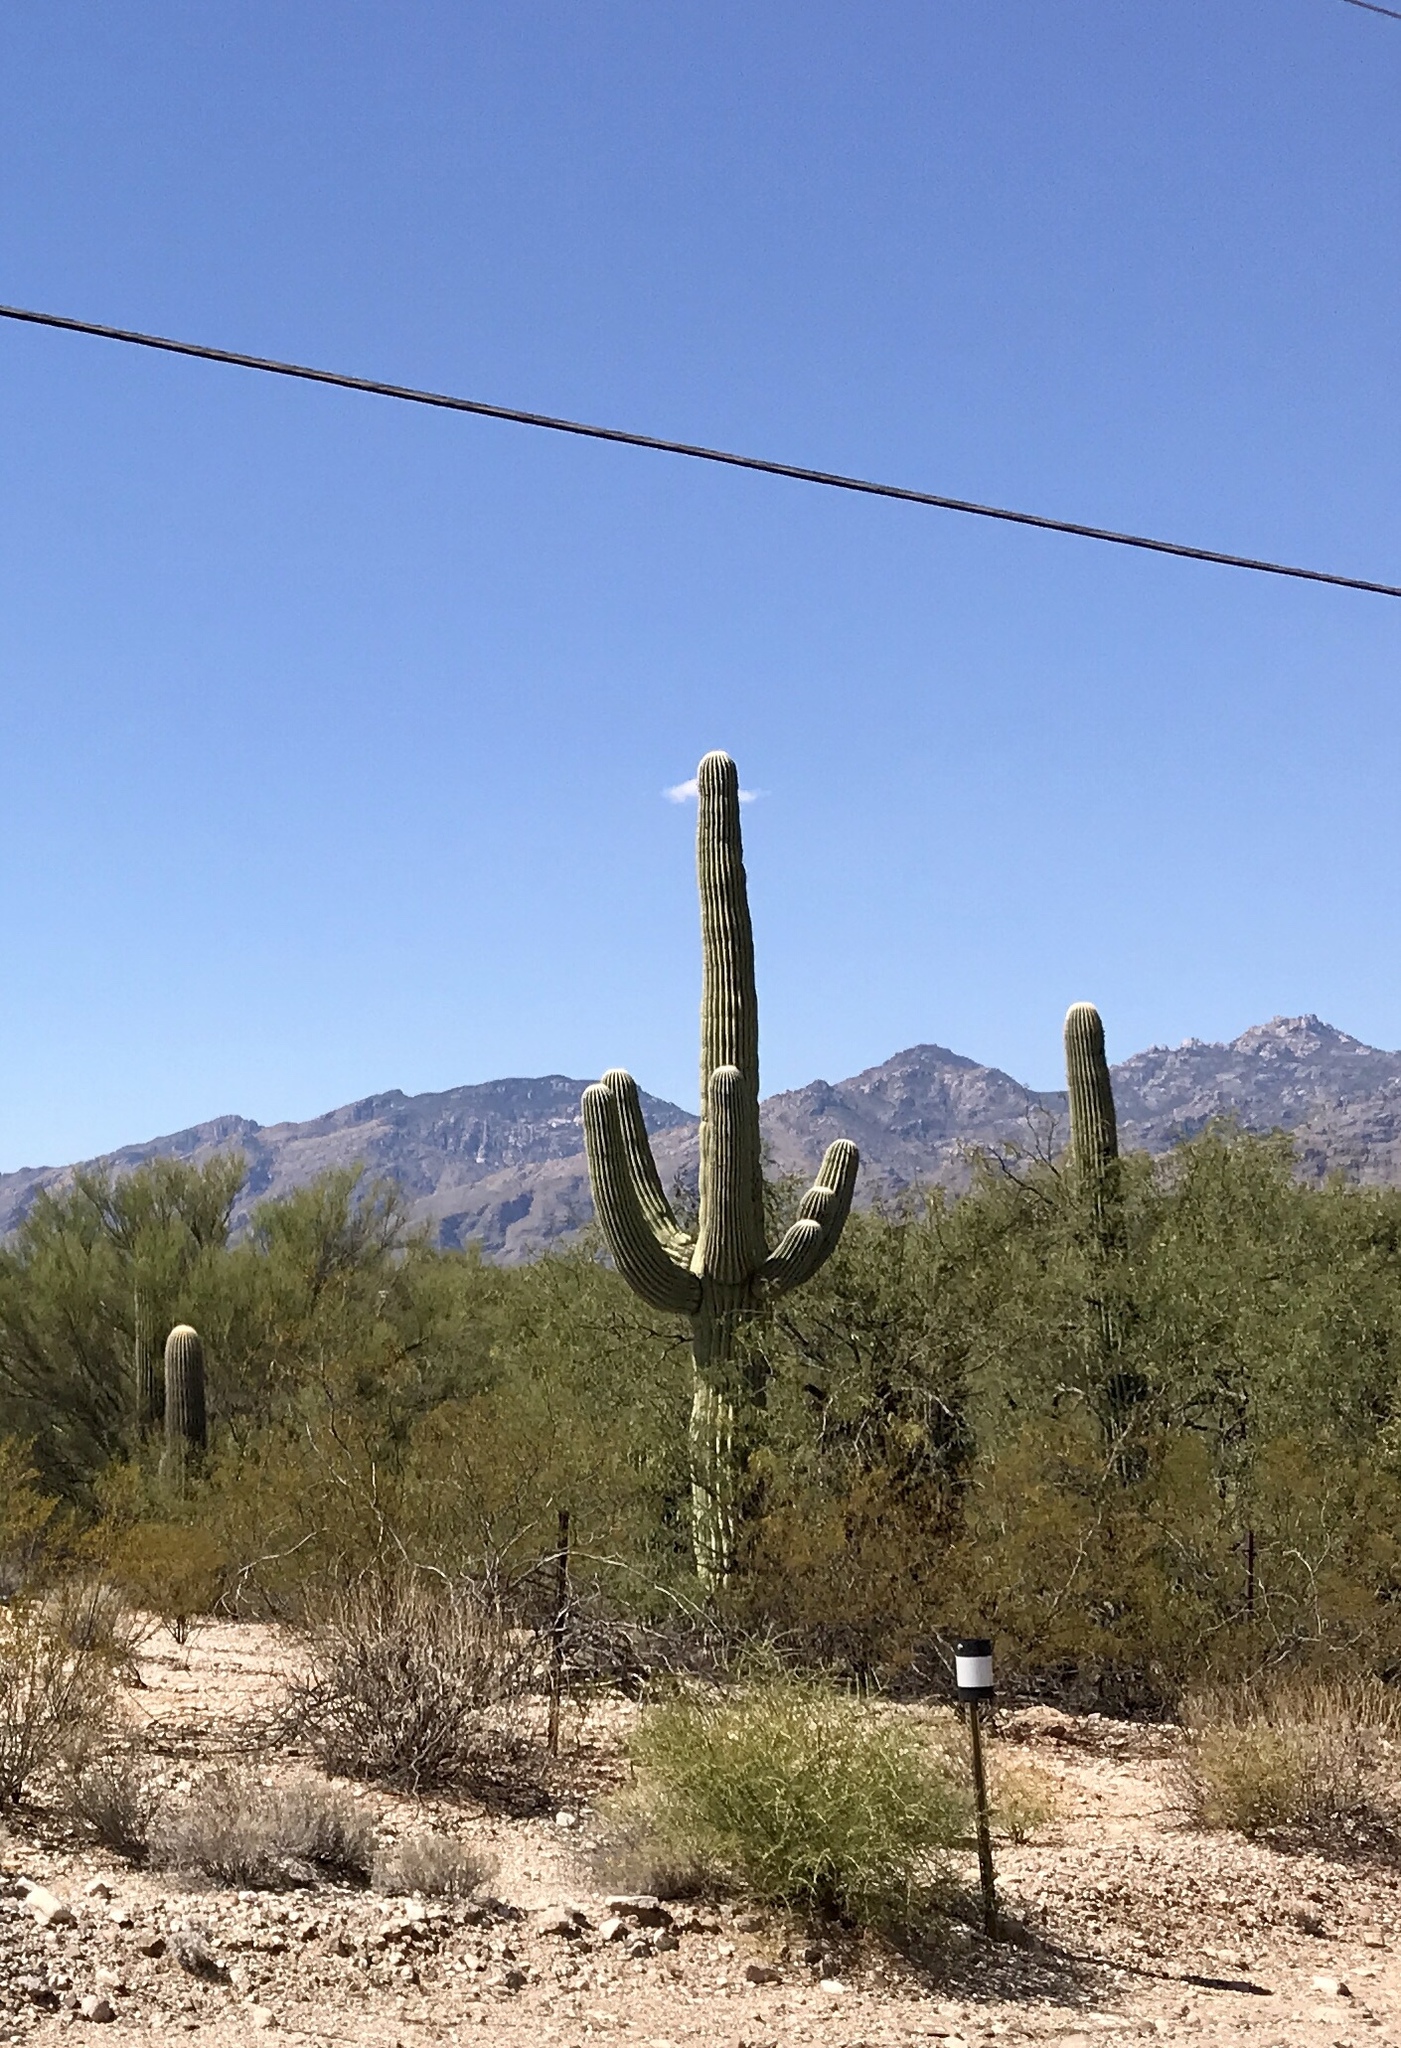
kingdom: Plantae
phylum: Tracheophyta
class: Magnoliopsida
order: Caryophyllales
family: Cactaceae
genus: Carnegiea
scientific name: Carnegiea gigantea
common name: Saguaro
